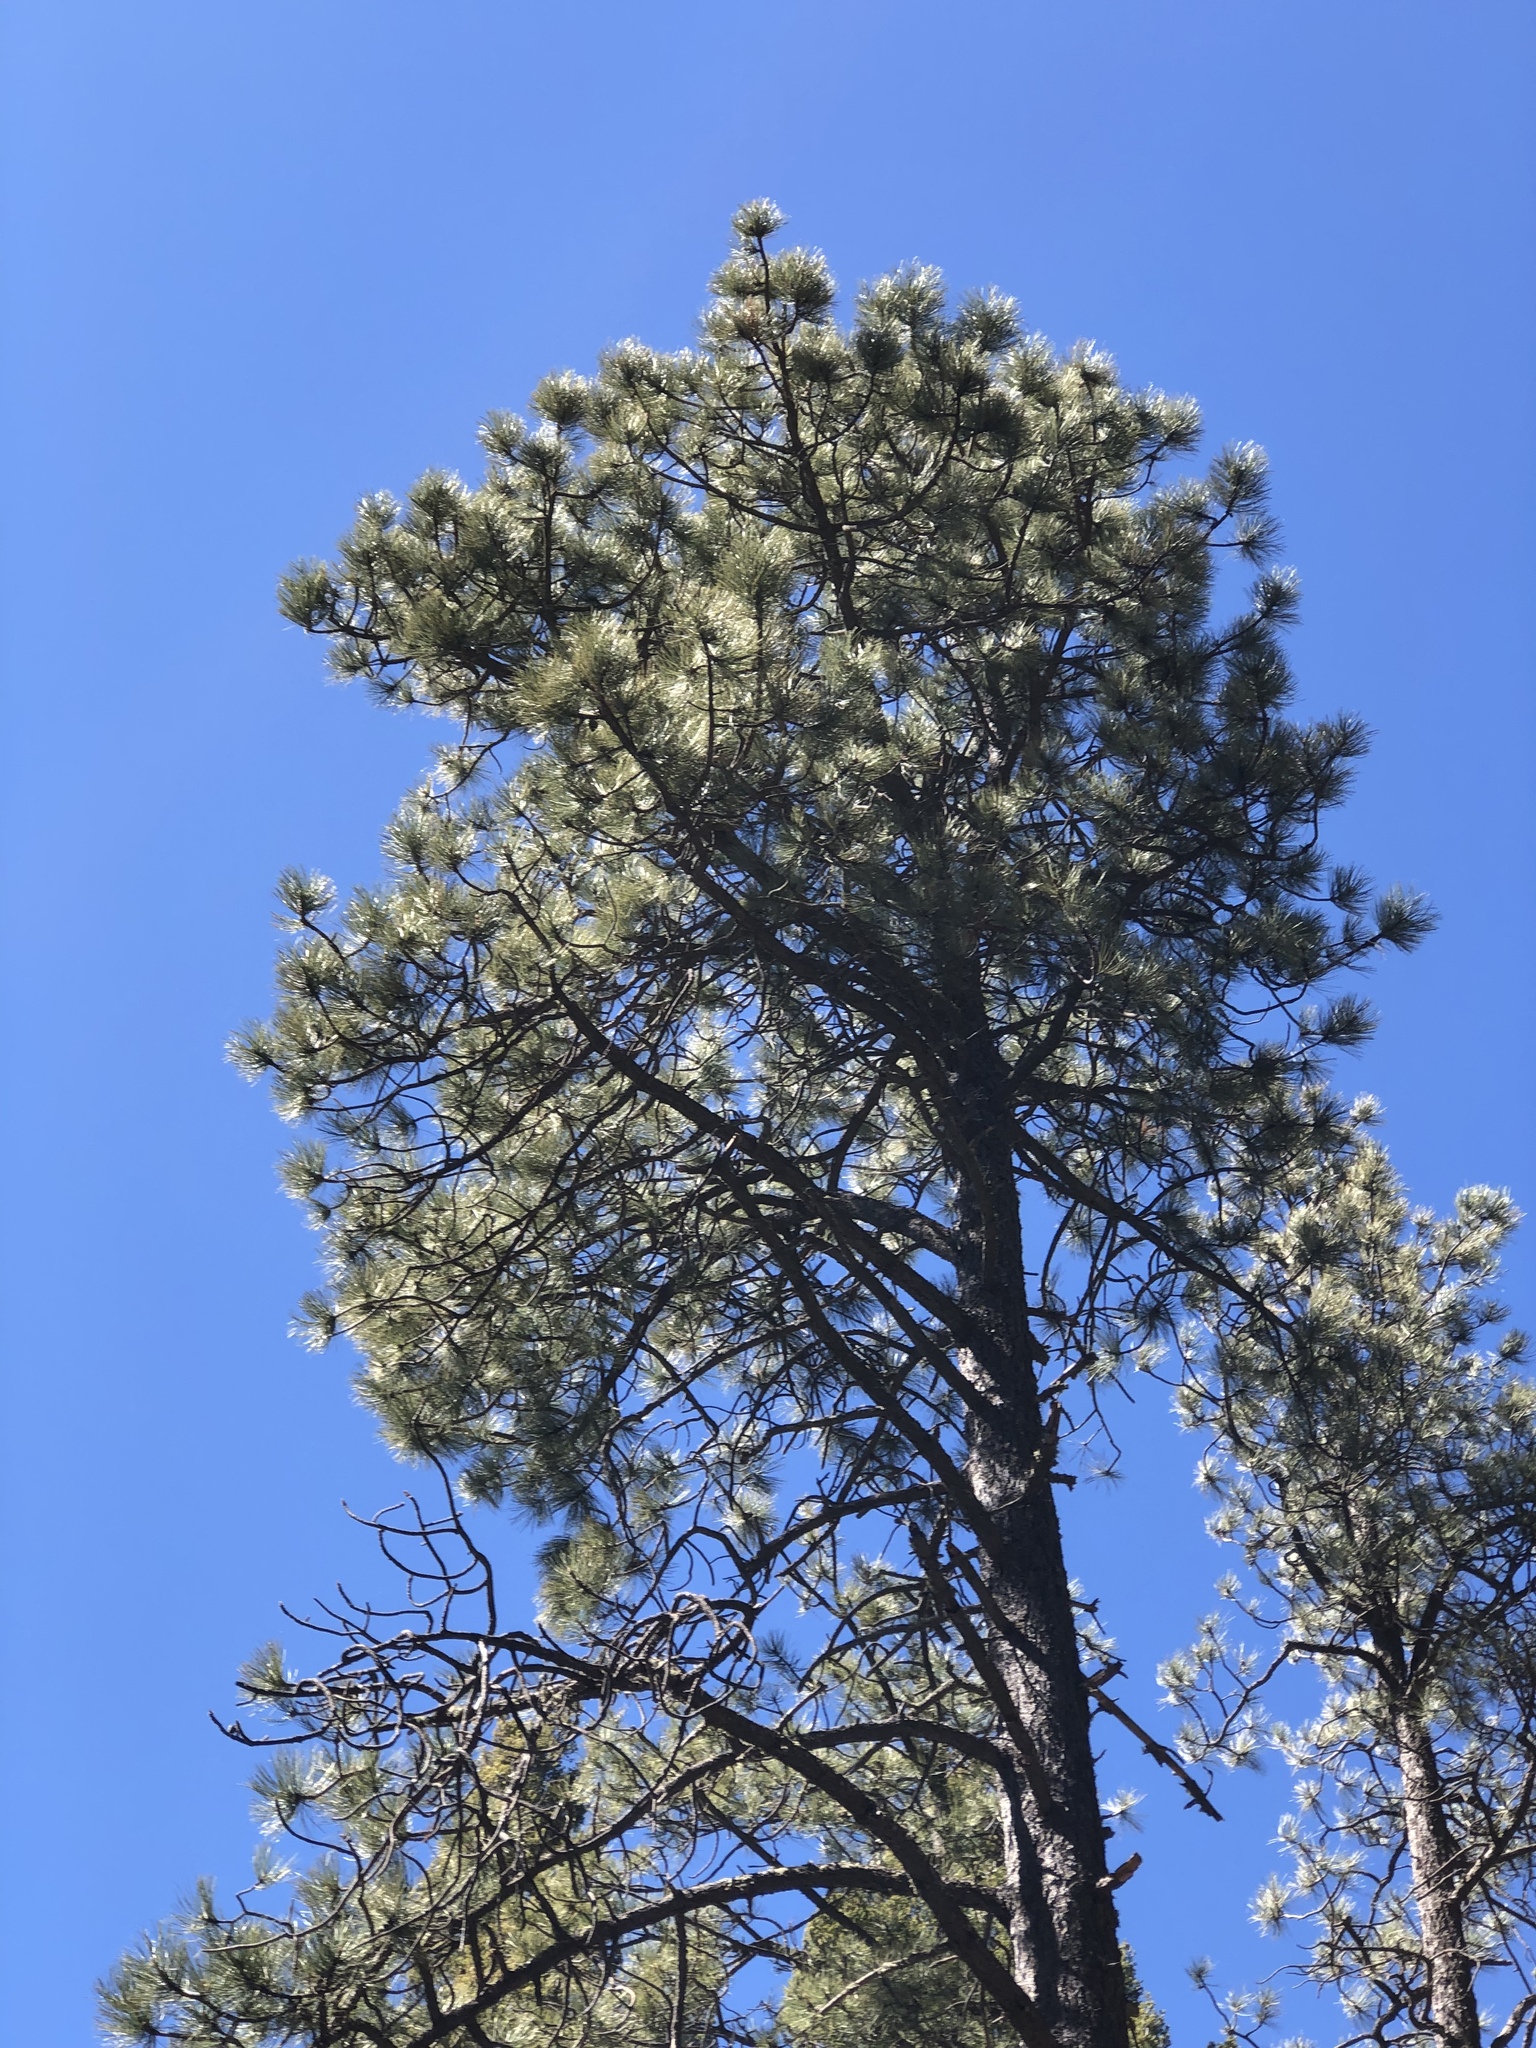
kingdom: Plantae
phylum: Tracheophyta
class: Pinopsida
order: Pinales
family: Pinaceae
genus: Pinus
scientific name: Pinus ponderosa
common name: Western yellow-pine
